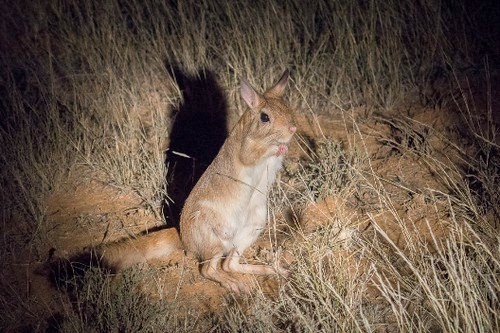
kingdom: Animalia
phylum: Chordata
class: Mammalia
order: Rodentia
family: Pedetidae
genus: Pedetes
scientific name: Pedetes capensis
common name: South african spring hare
